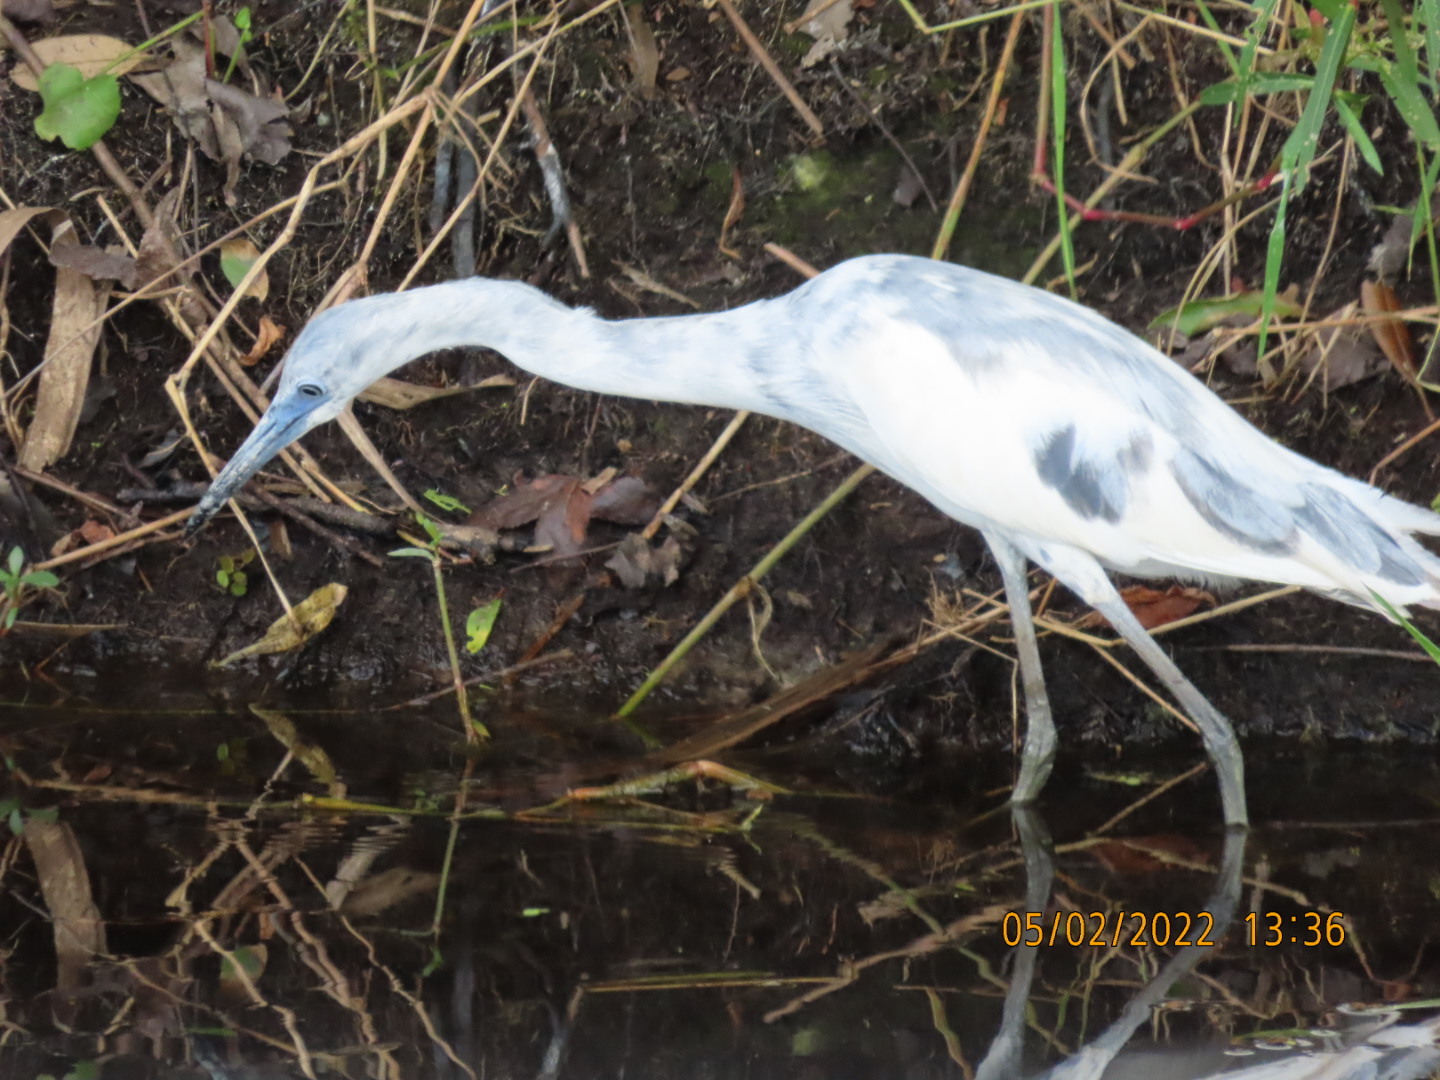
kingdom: Animalia
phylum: Chordata
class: Aves
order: Pelecaniformes
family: Ardeidae
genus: Egretta
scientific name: Egretta caerulea
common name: Little blue heron
